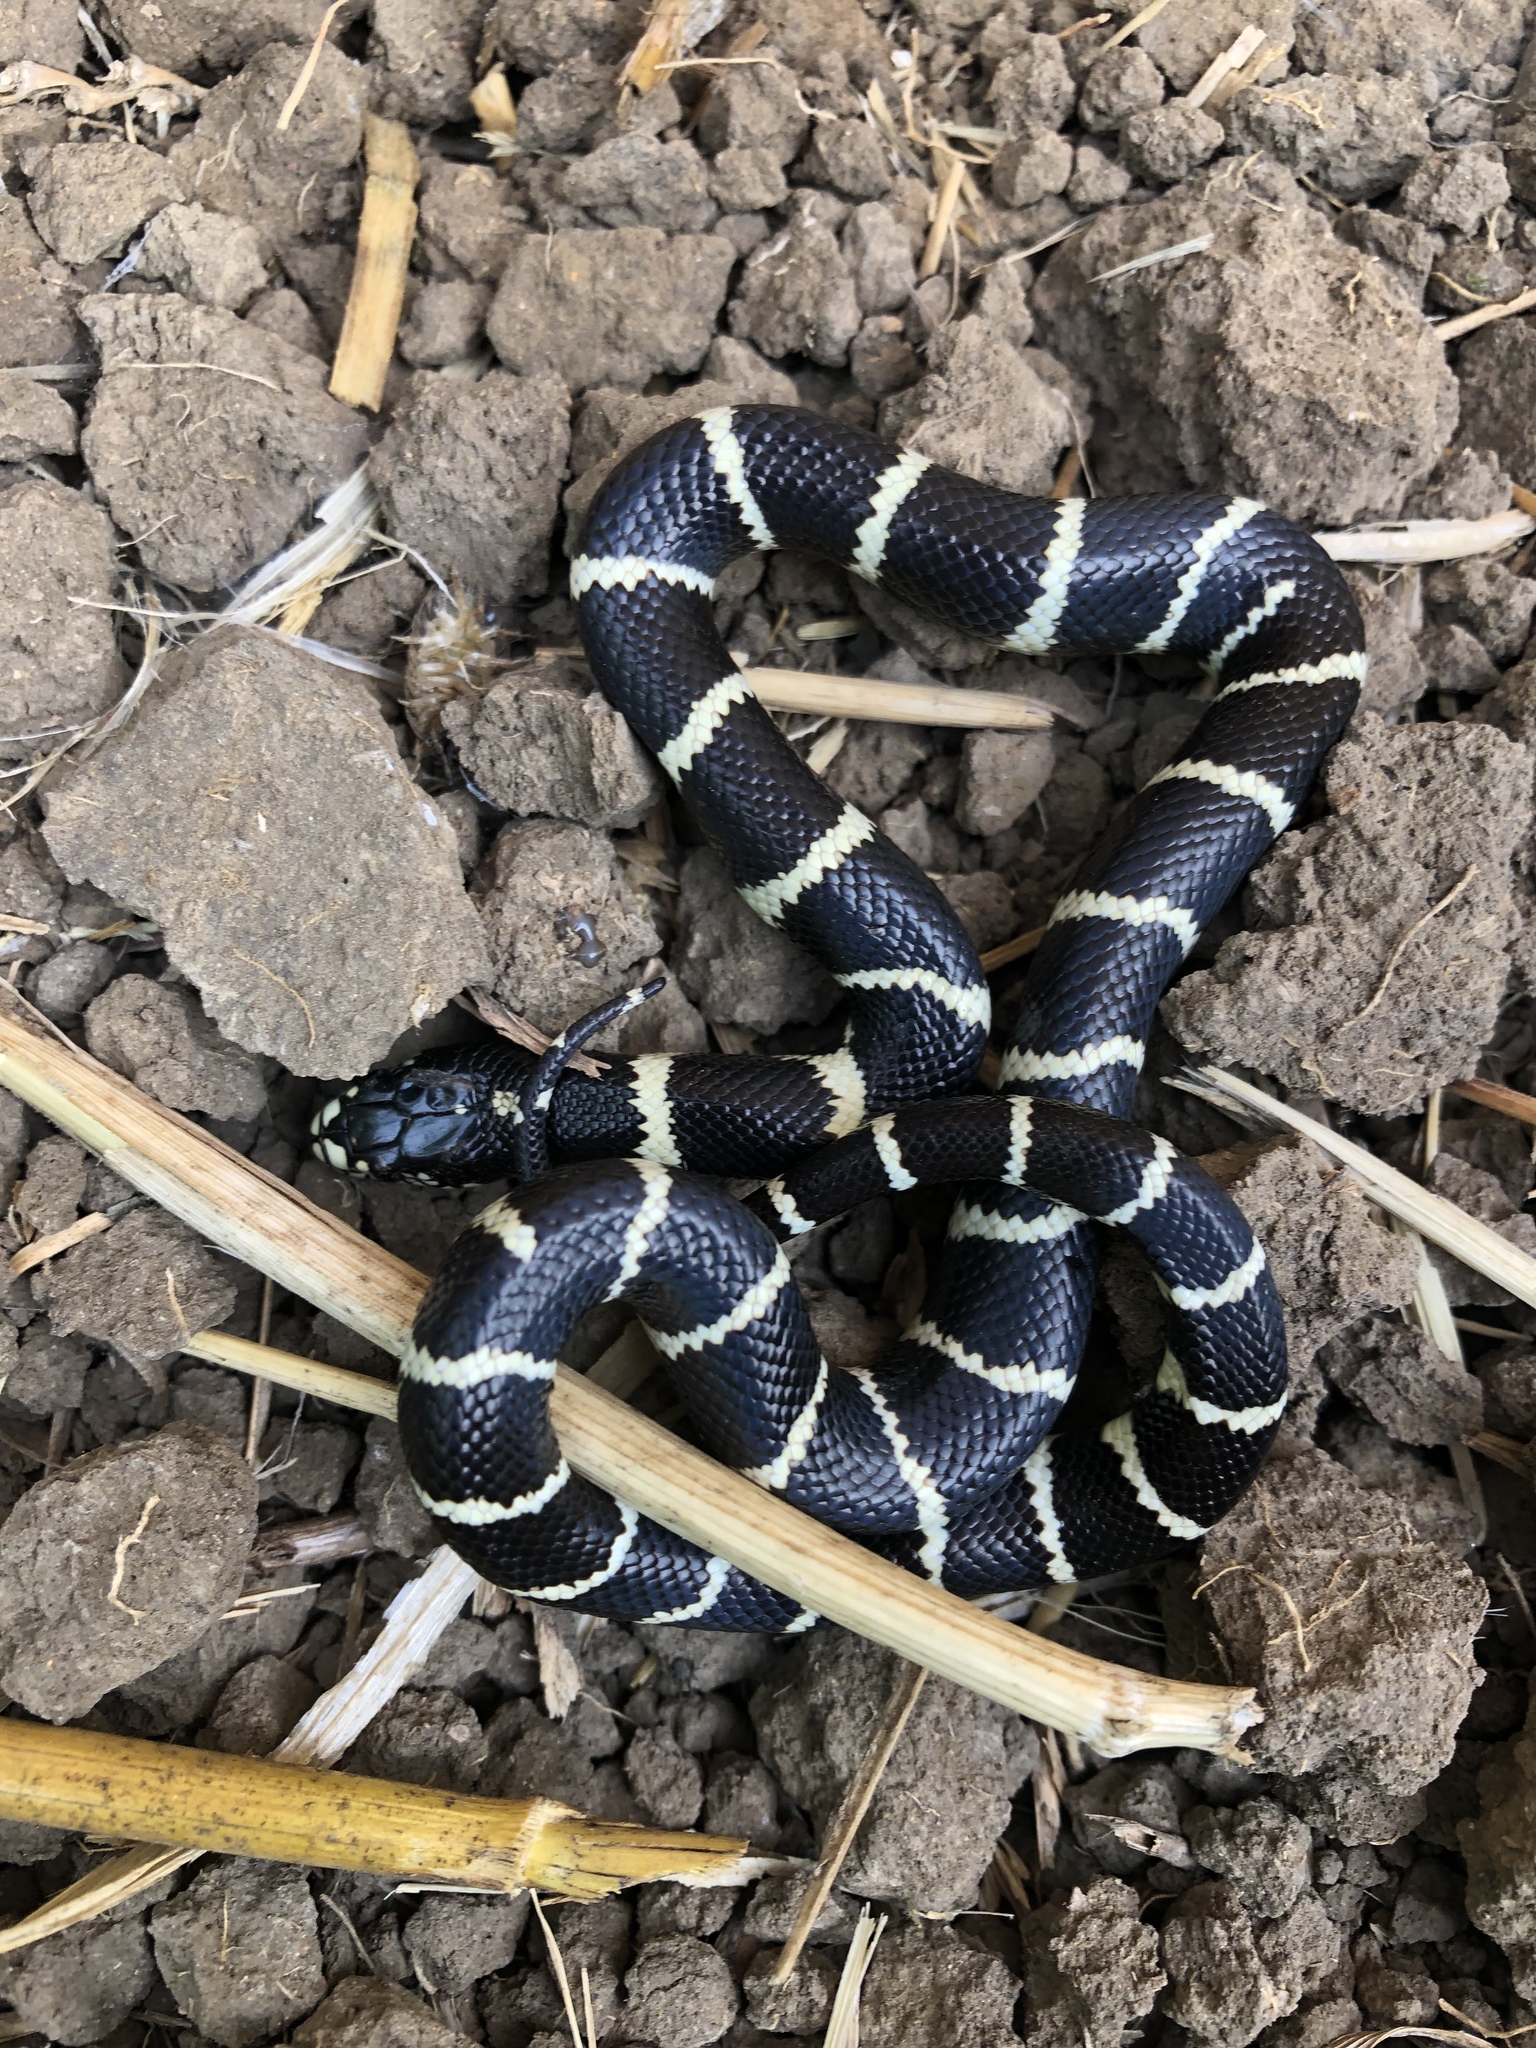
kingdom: Animalia
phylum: Chordata
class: Squamata
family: Colubridae
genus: Lampropeltis
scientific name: Lampropeltis californiae
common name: California kingsnake
